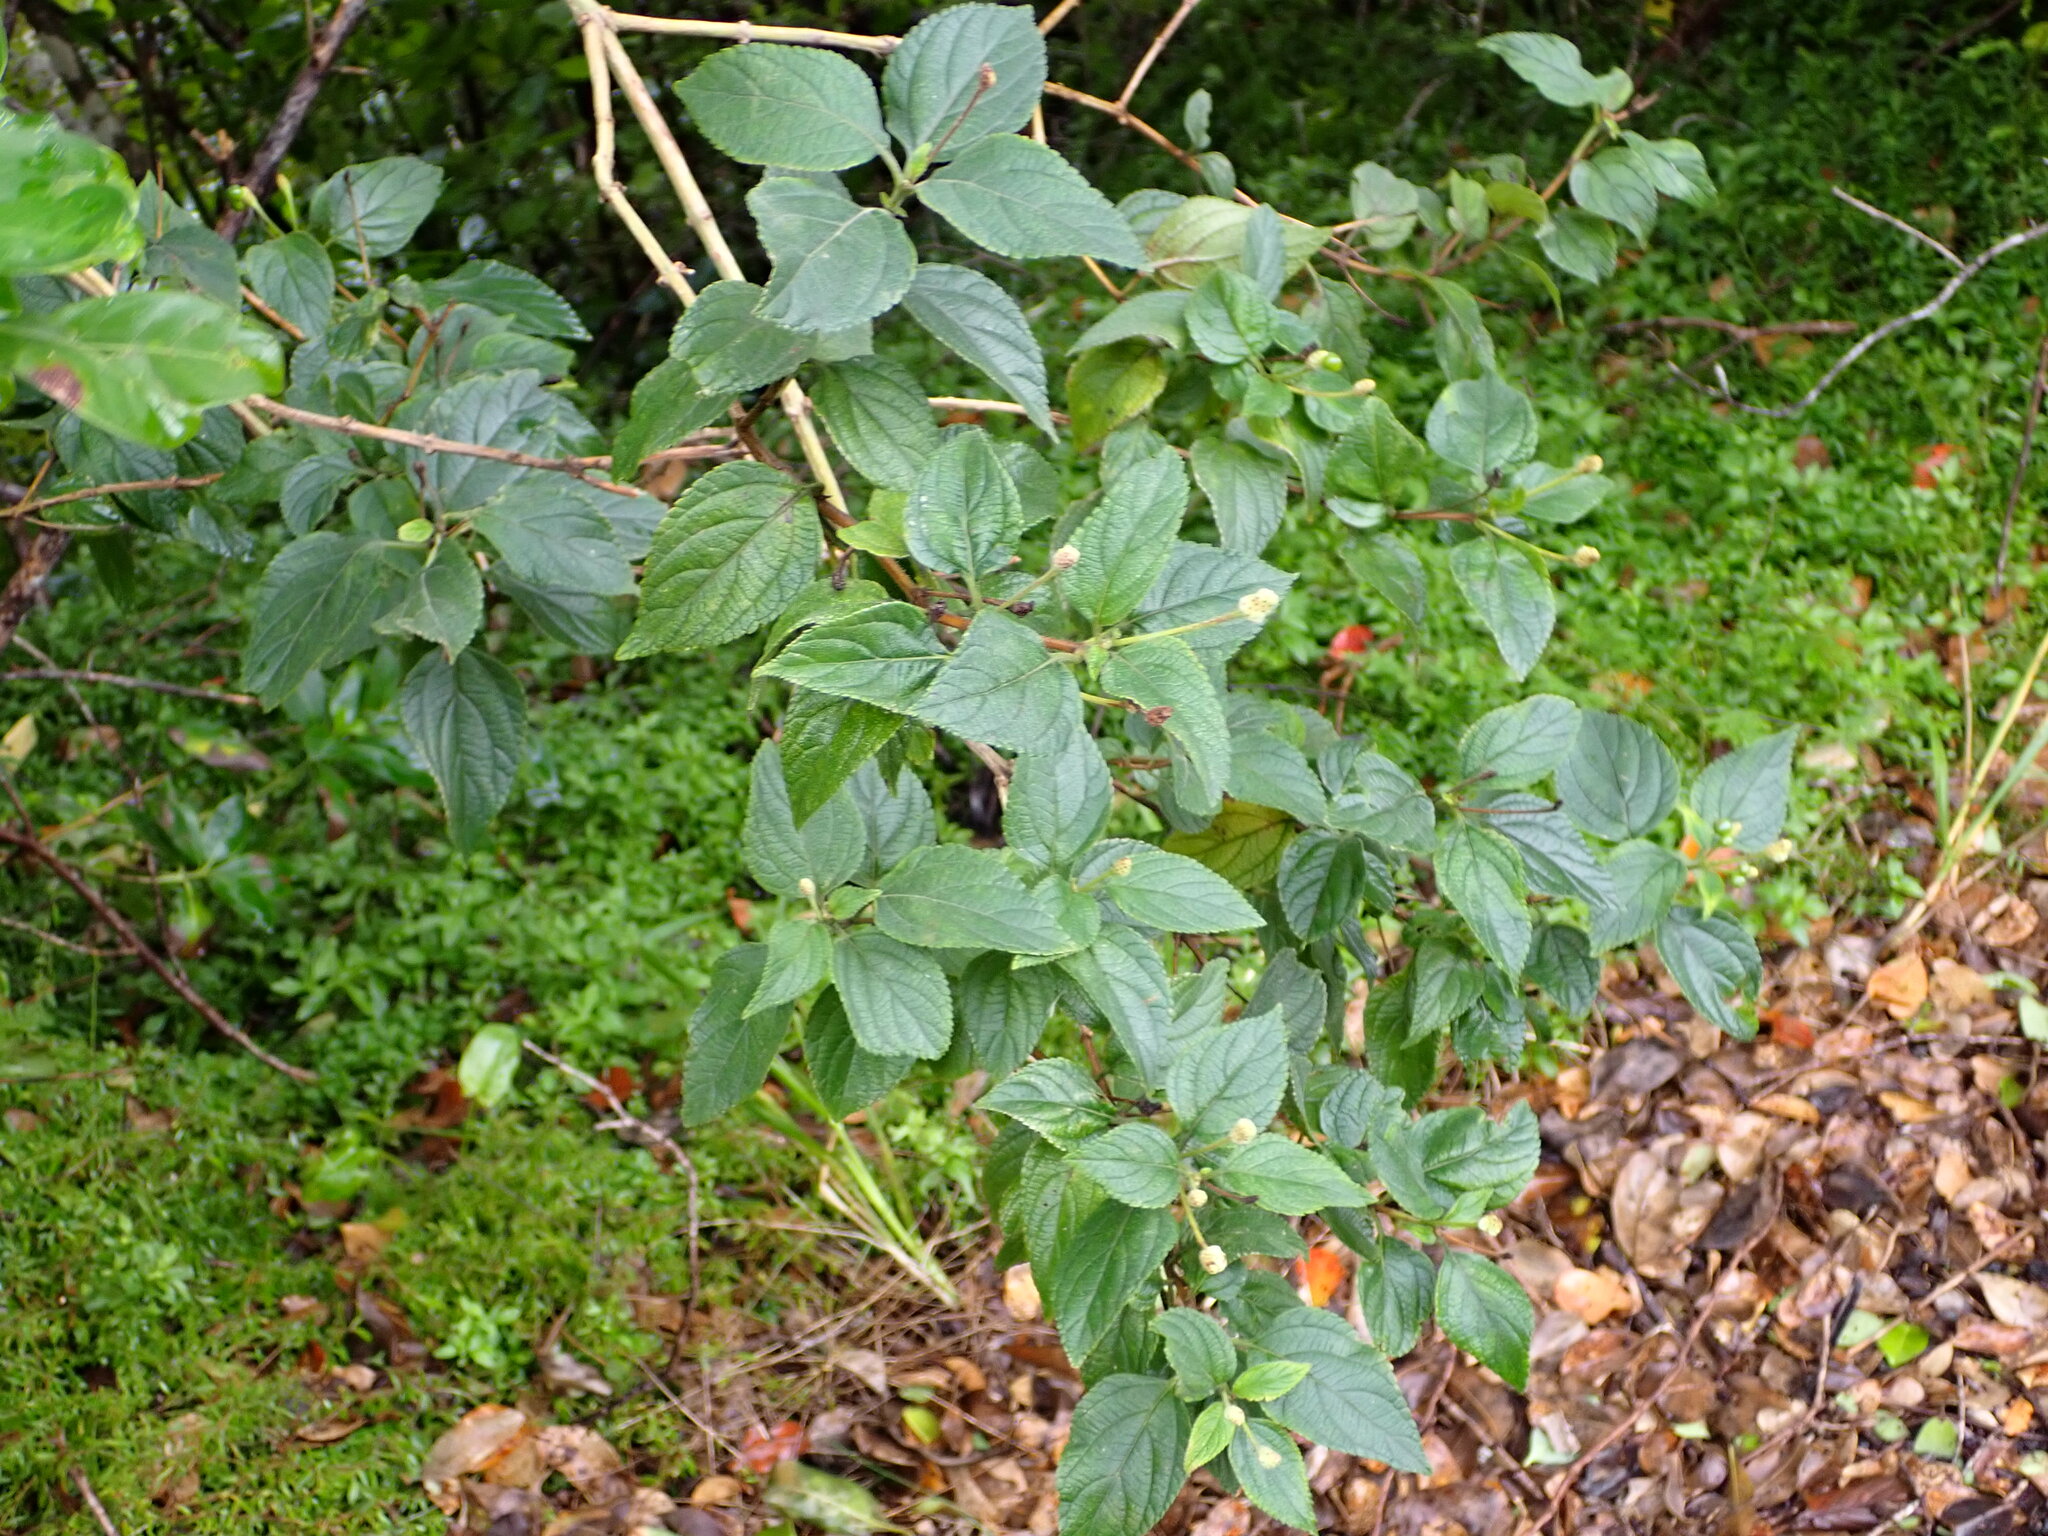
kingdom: Plantae
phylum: Tracheophyta
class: Magnoliopsida
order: Lamiales
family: Verbenaceae
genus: Lantana
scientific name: Lantana camara
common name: Lantana
